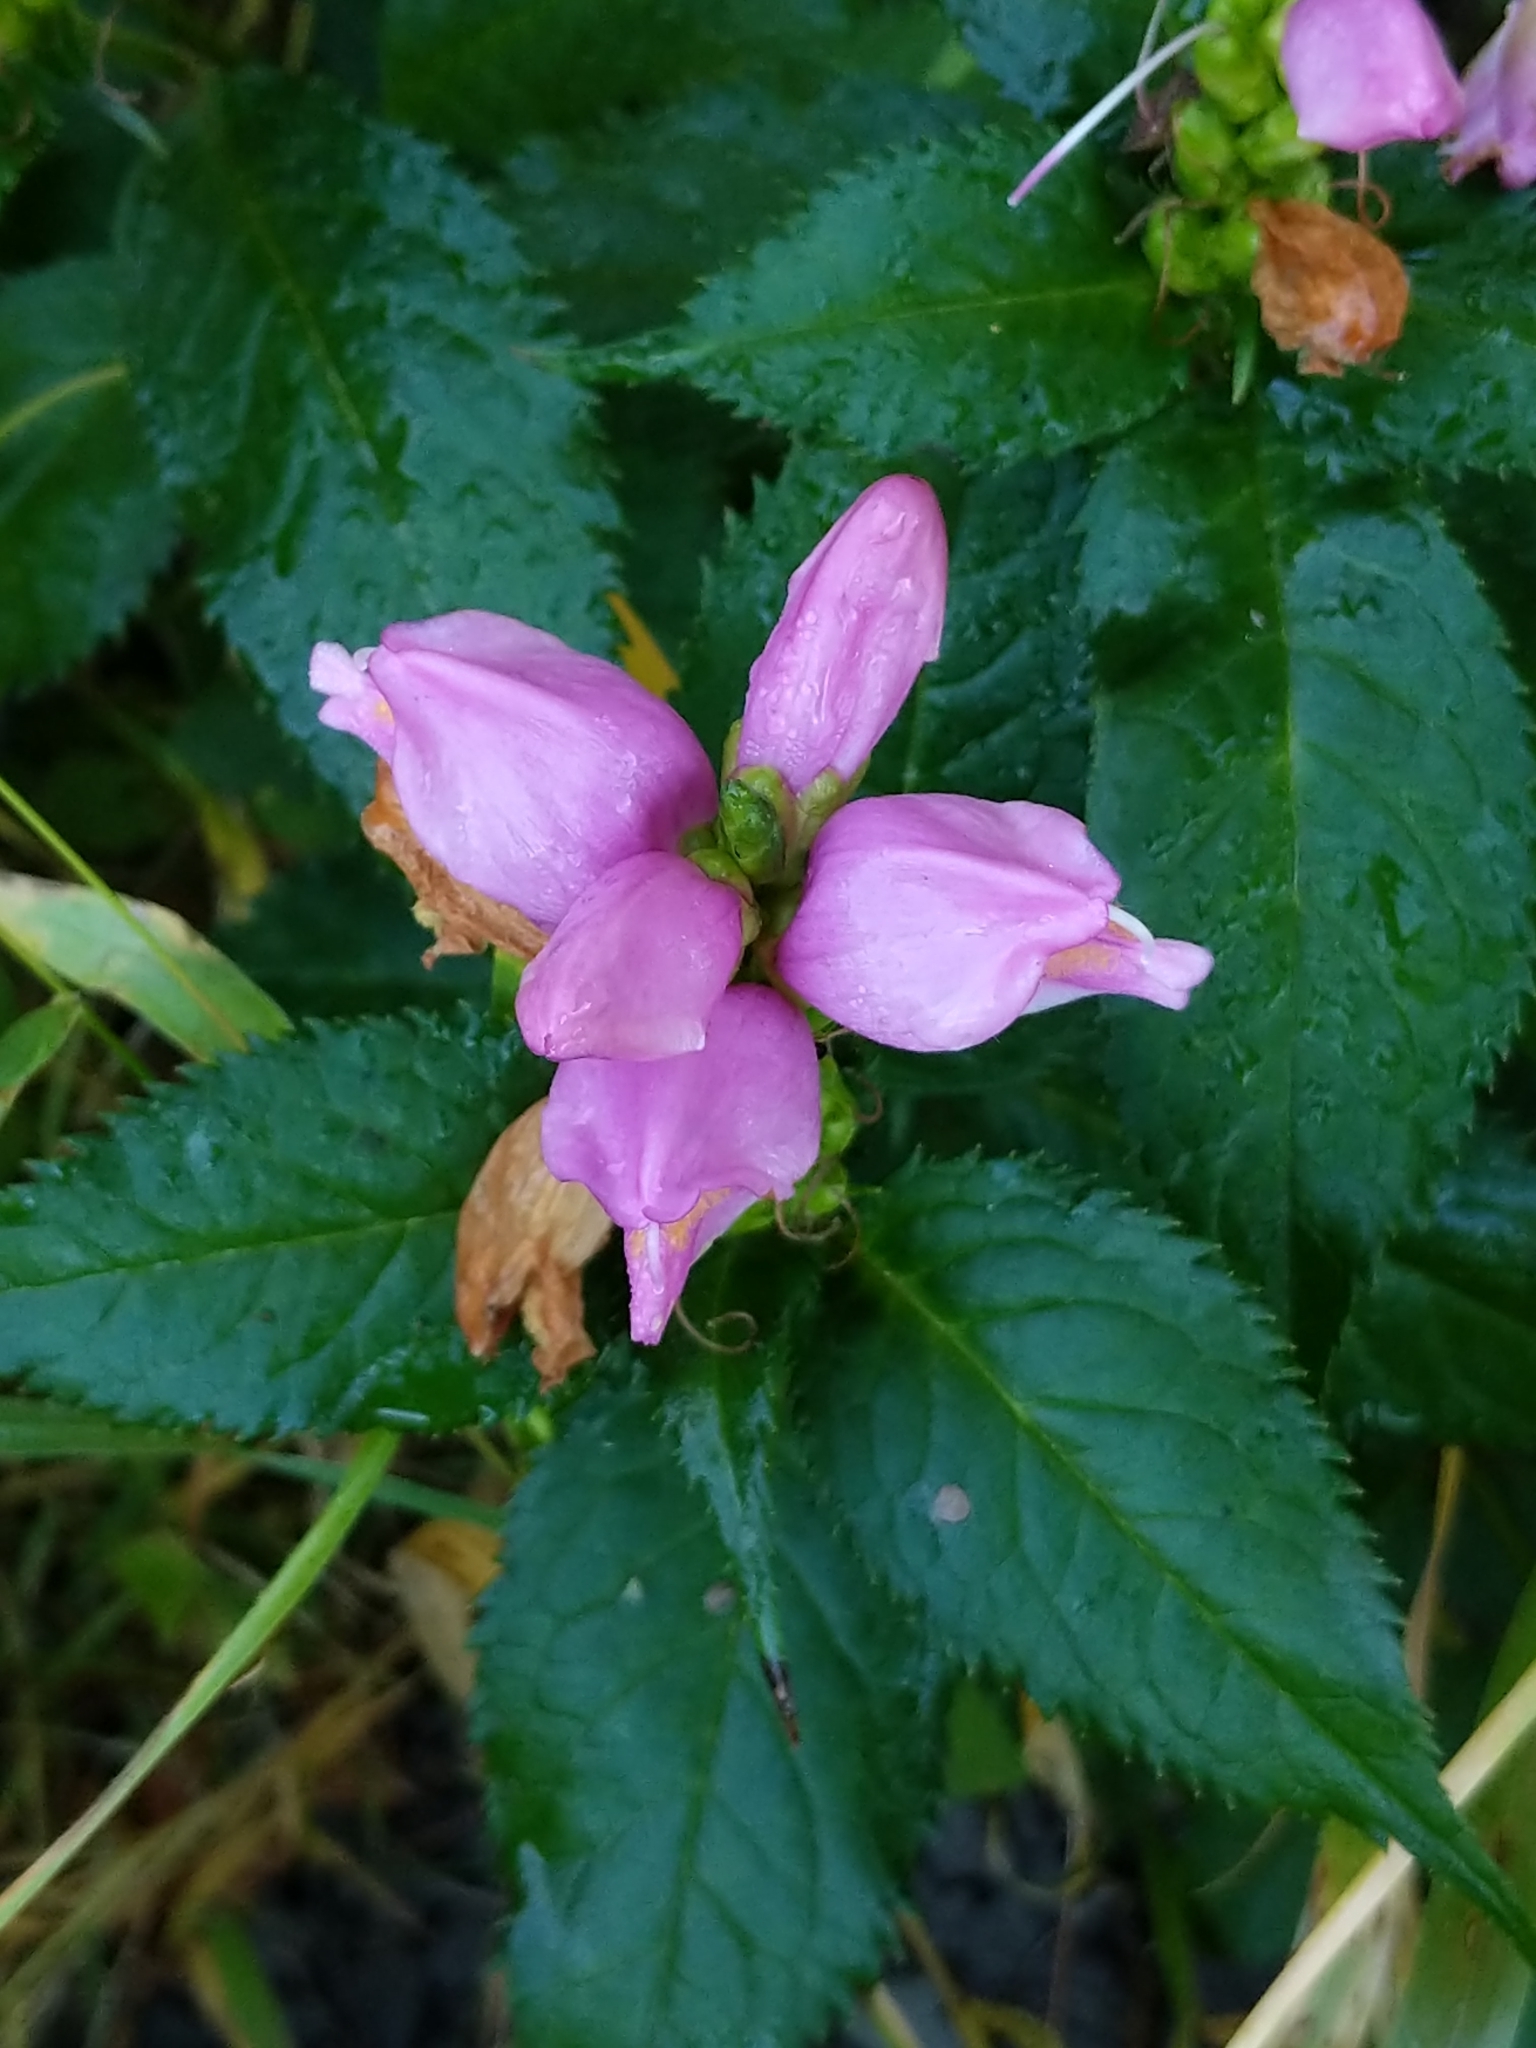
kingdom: Plantae
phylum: Tracheophyta
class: Magnoliopsida
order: Lamiales
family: Plantaginaceae
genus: Chelone
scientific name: Chelone lyonii
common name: Pink turtlehead
